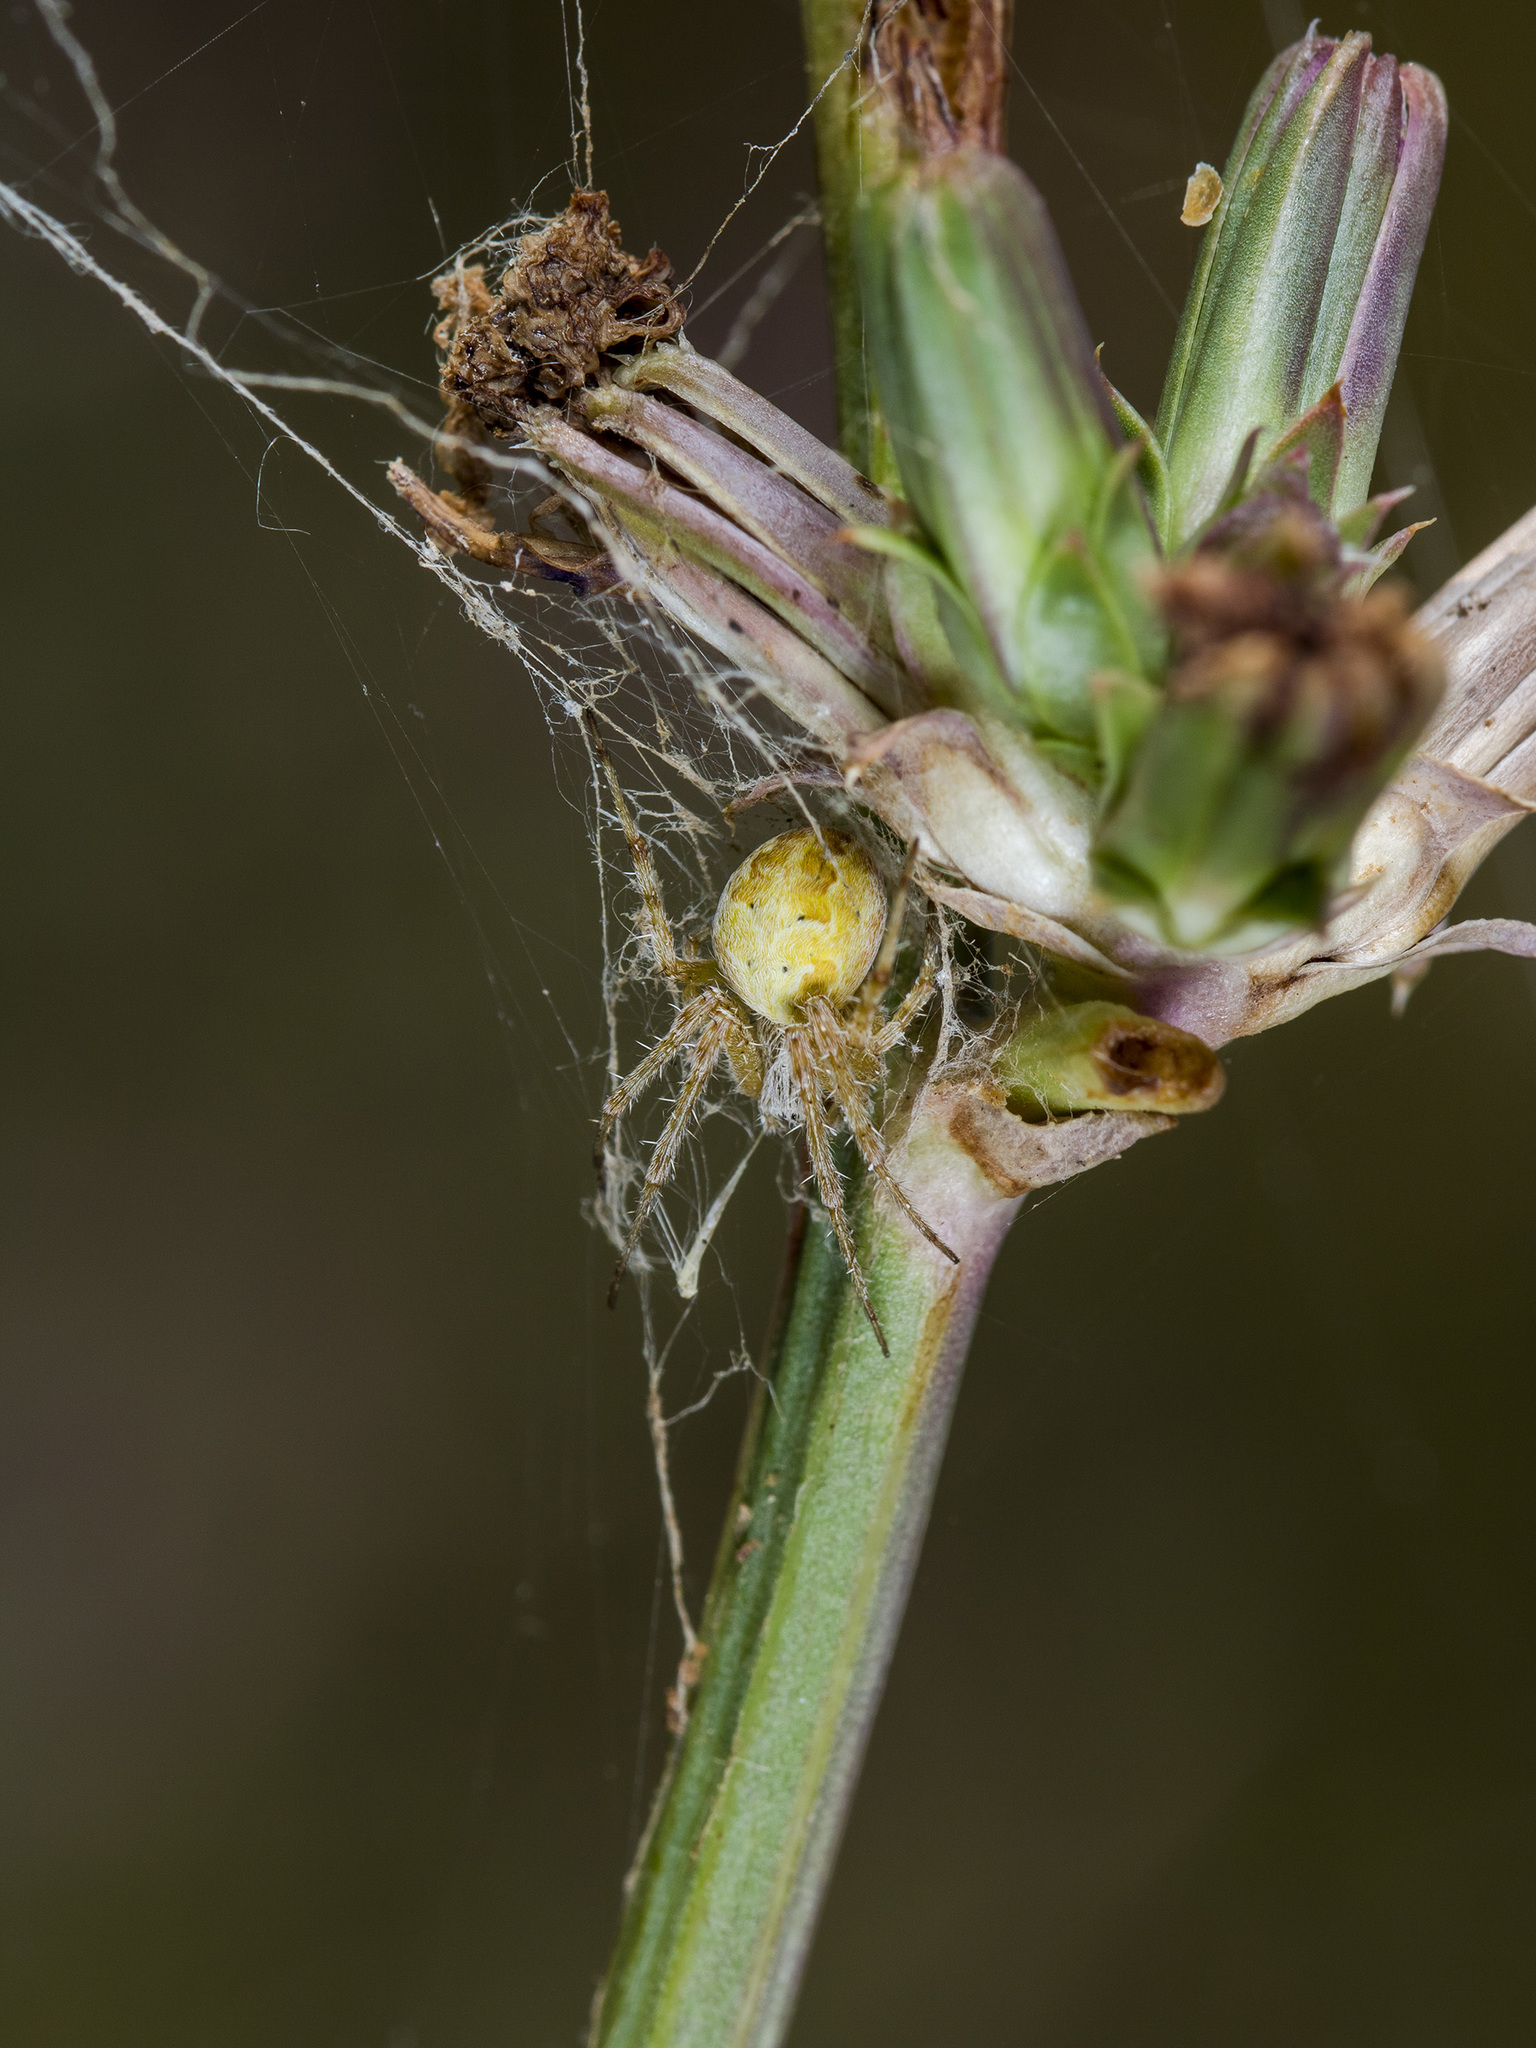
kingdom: Animalia
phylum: Arthropoda
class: Arachnida
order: Araneae
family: Araneidae
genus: Araneus
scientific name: Araneus pallasi
